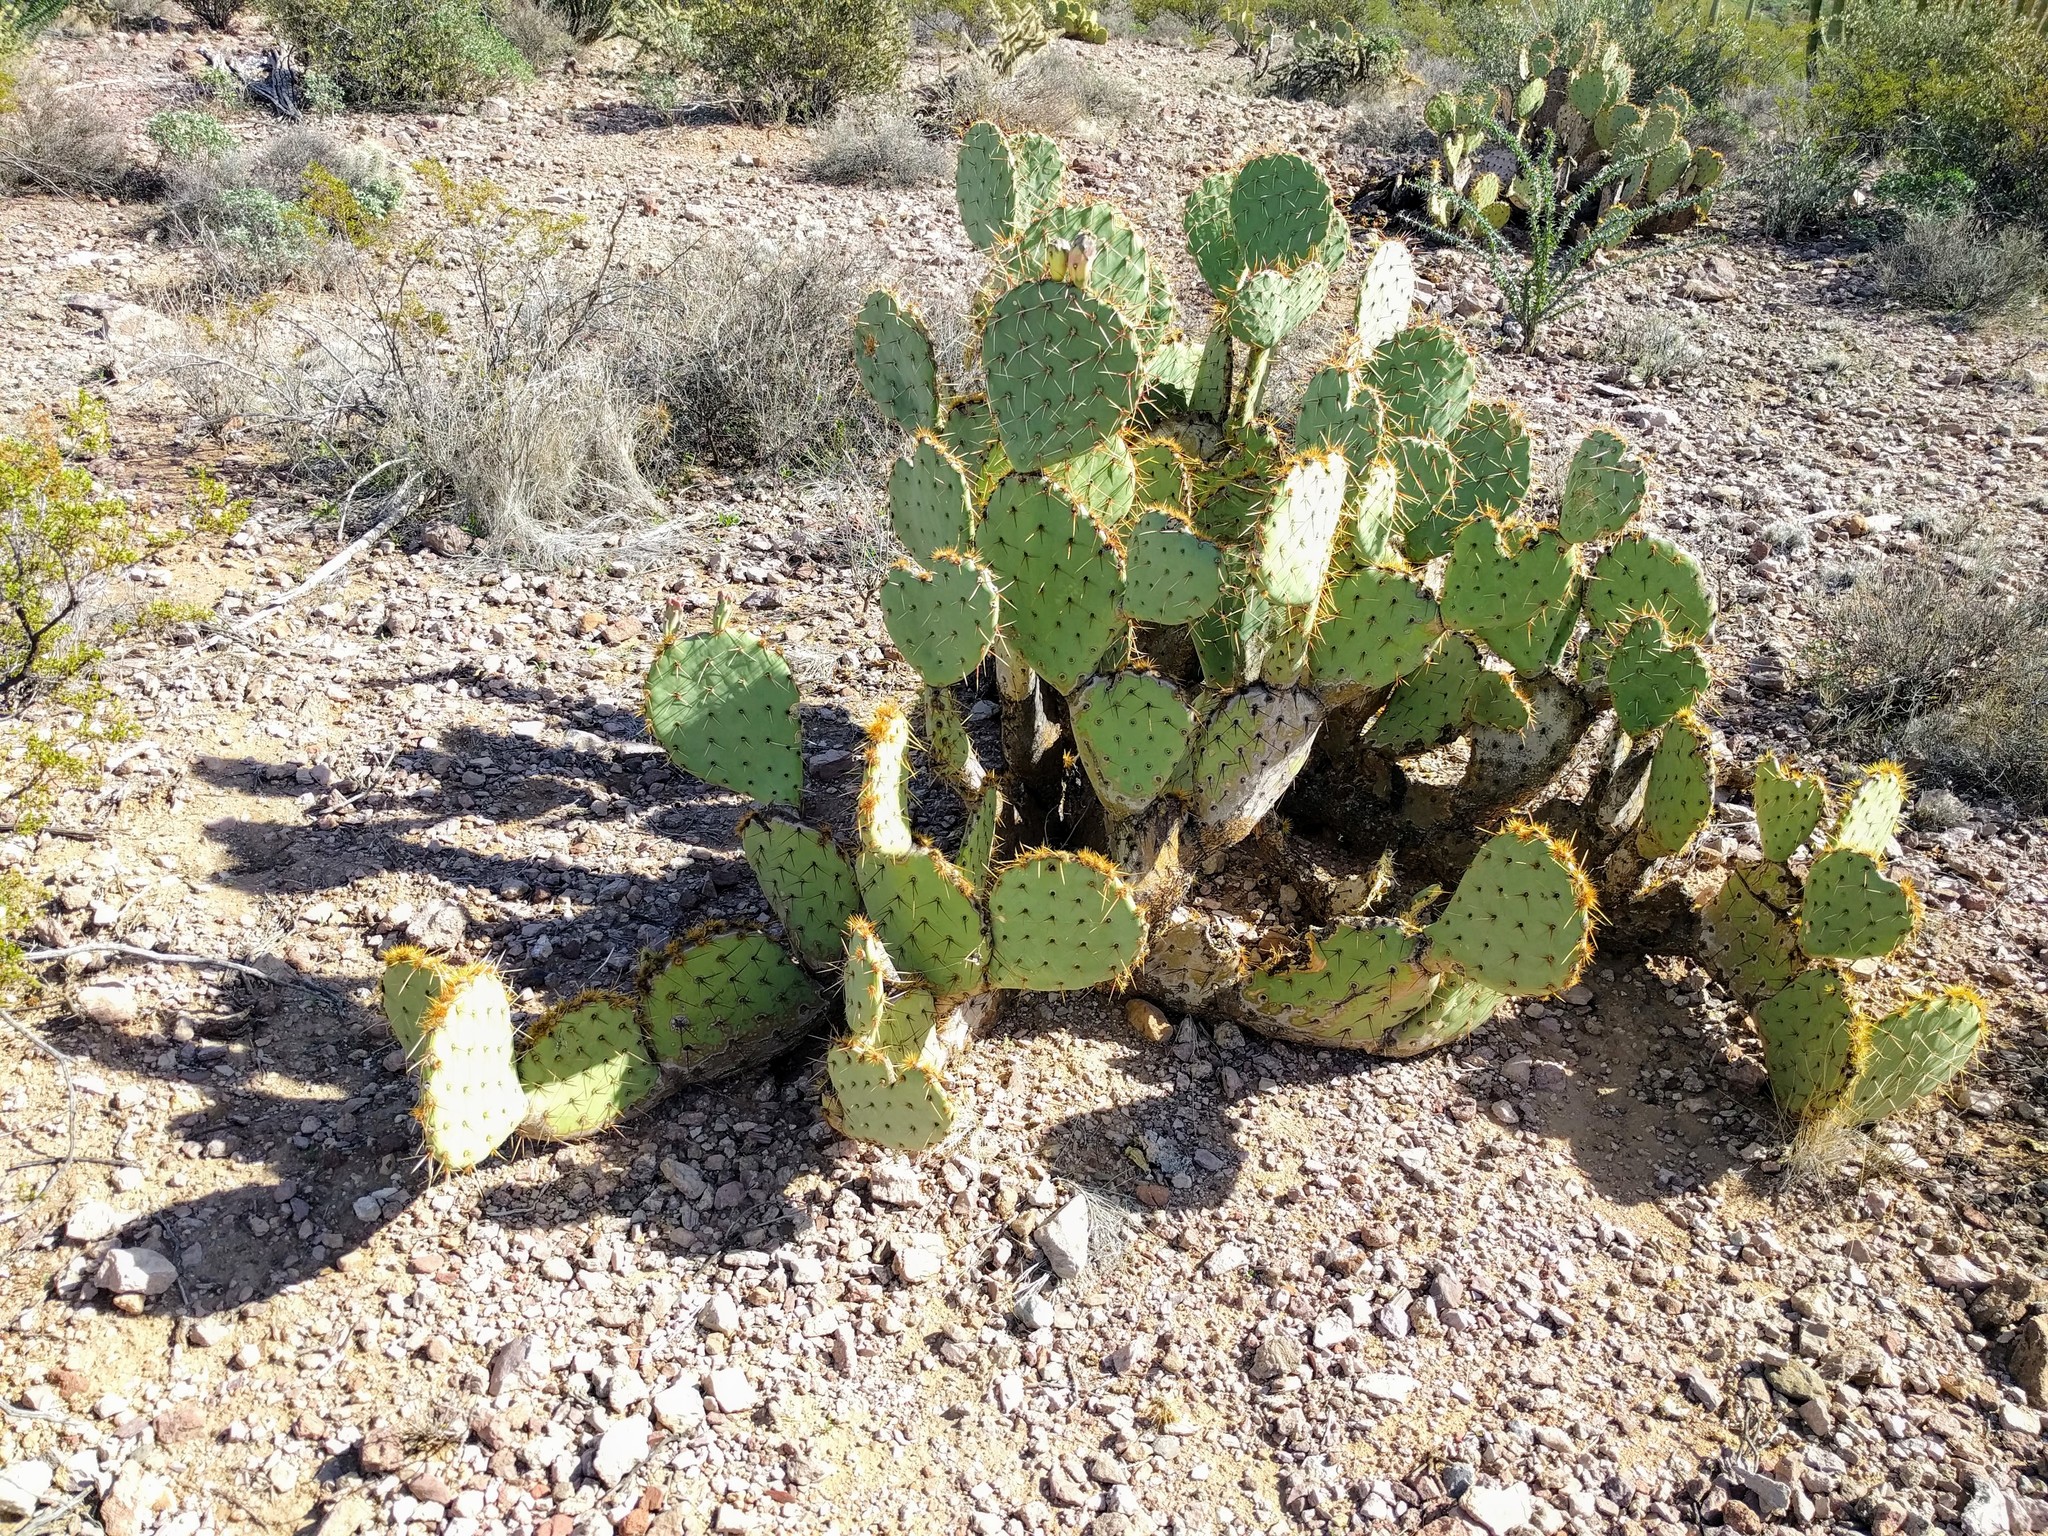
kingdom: Plantae
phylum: Tracheophyta
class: Magnoliopsida
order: Caryophyllales
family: Cactaceae
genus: Opuntia
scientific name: Opuntia engelmannii
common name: Cactus-apple
